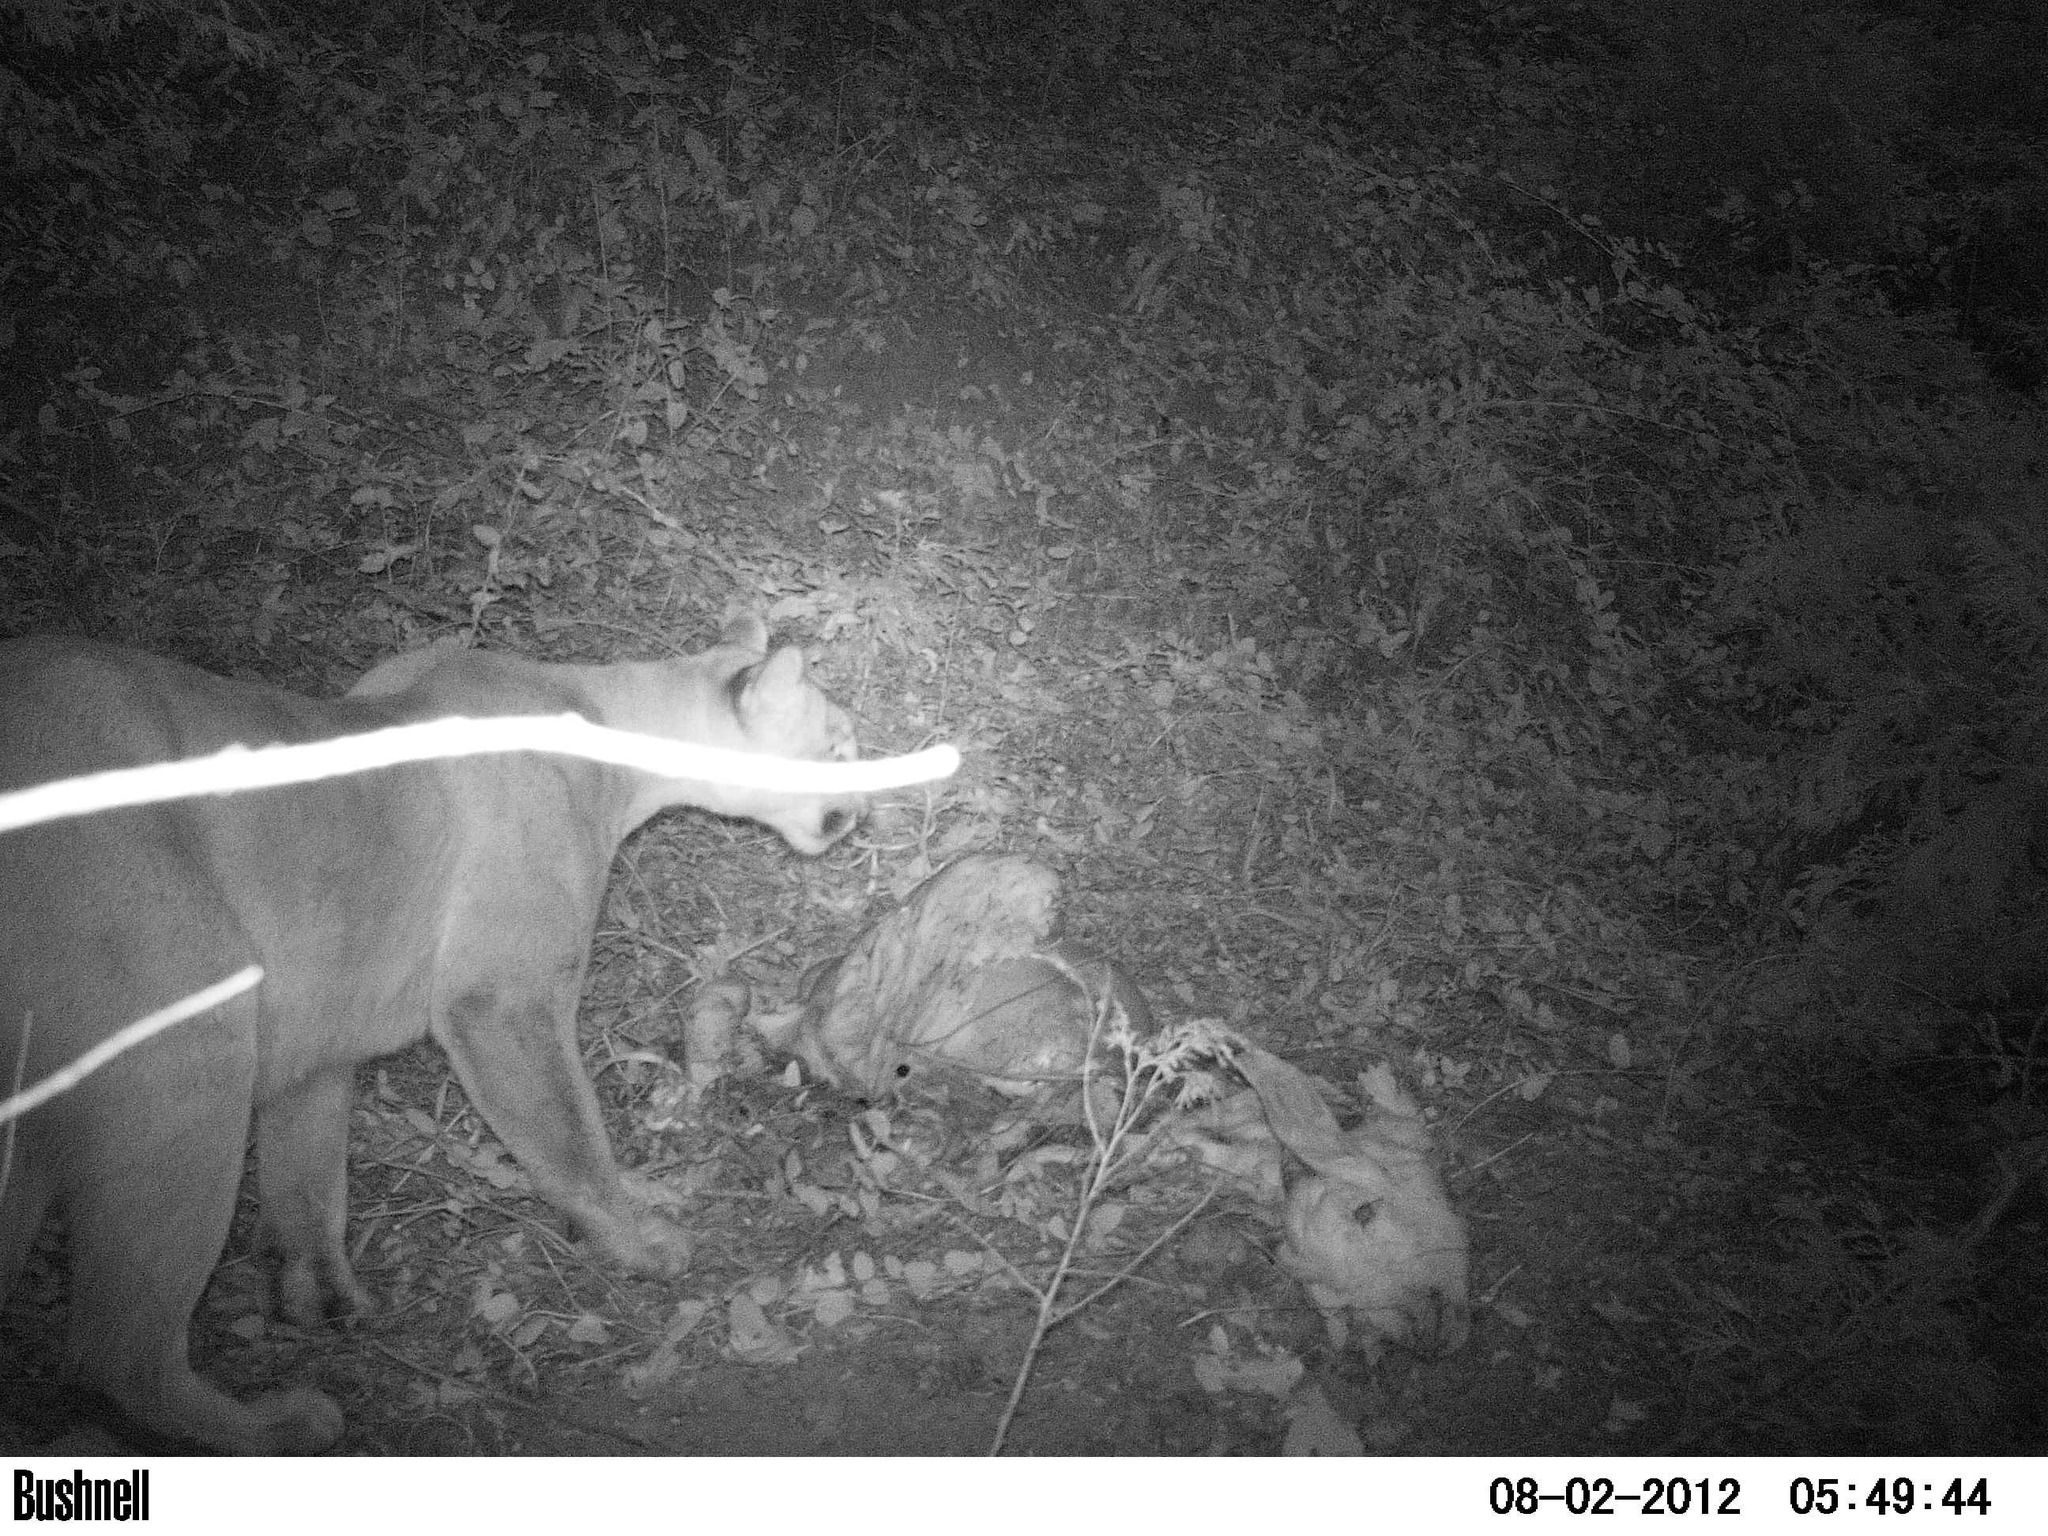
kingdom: Animalia
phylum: Chordata
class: Mammalia
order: Carnivora
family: Felidae
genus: Puma
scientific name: Puma concolor
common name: Puma
